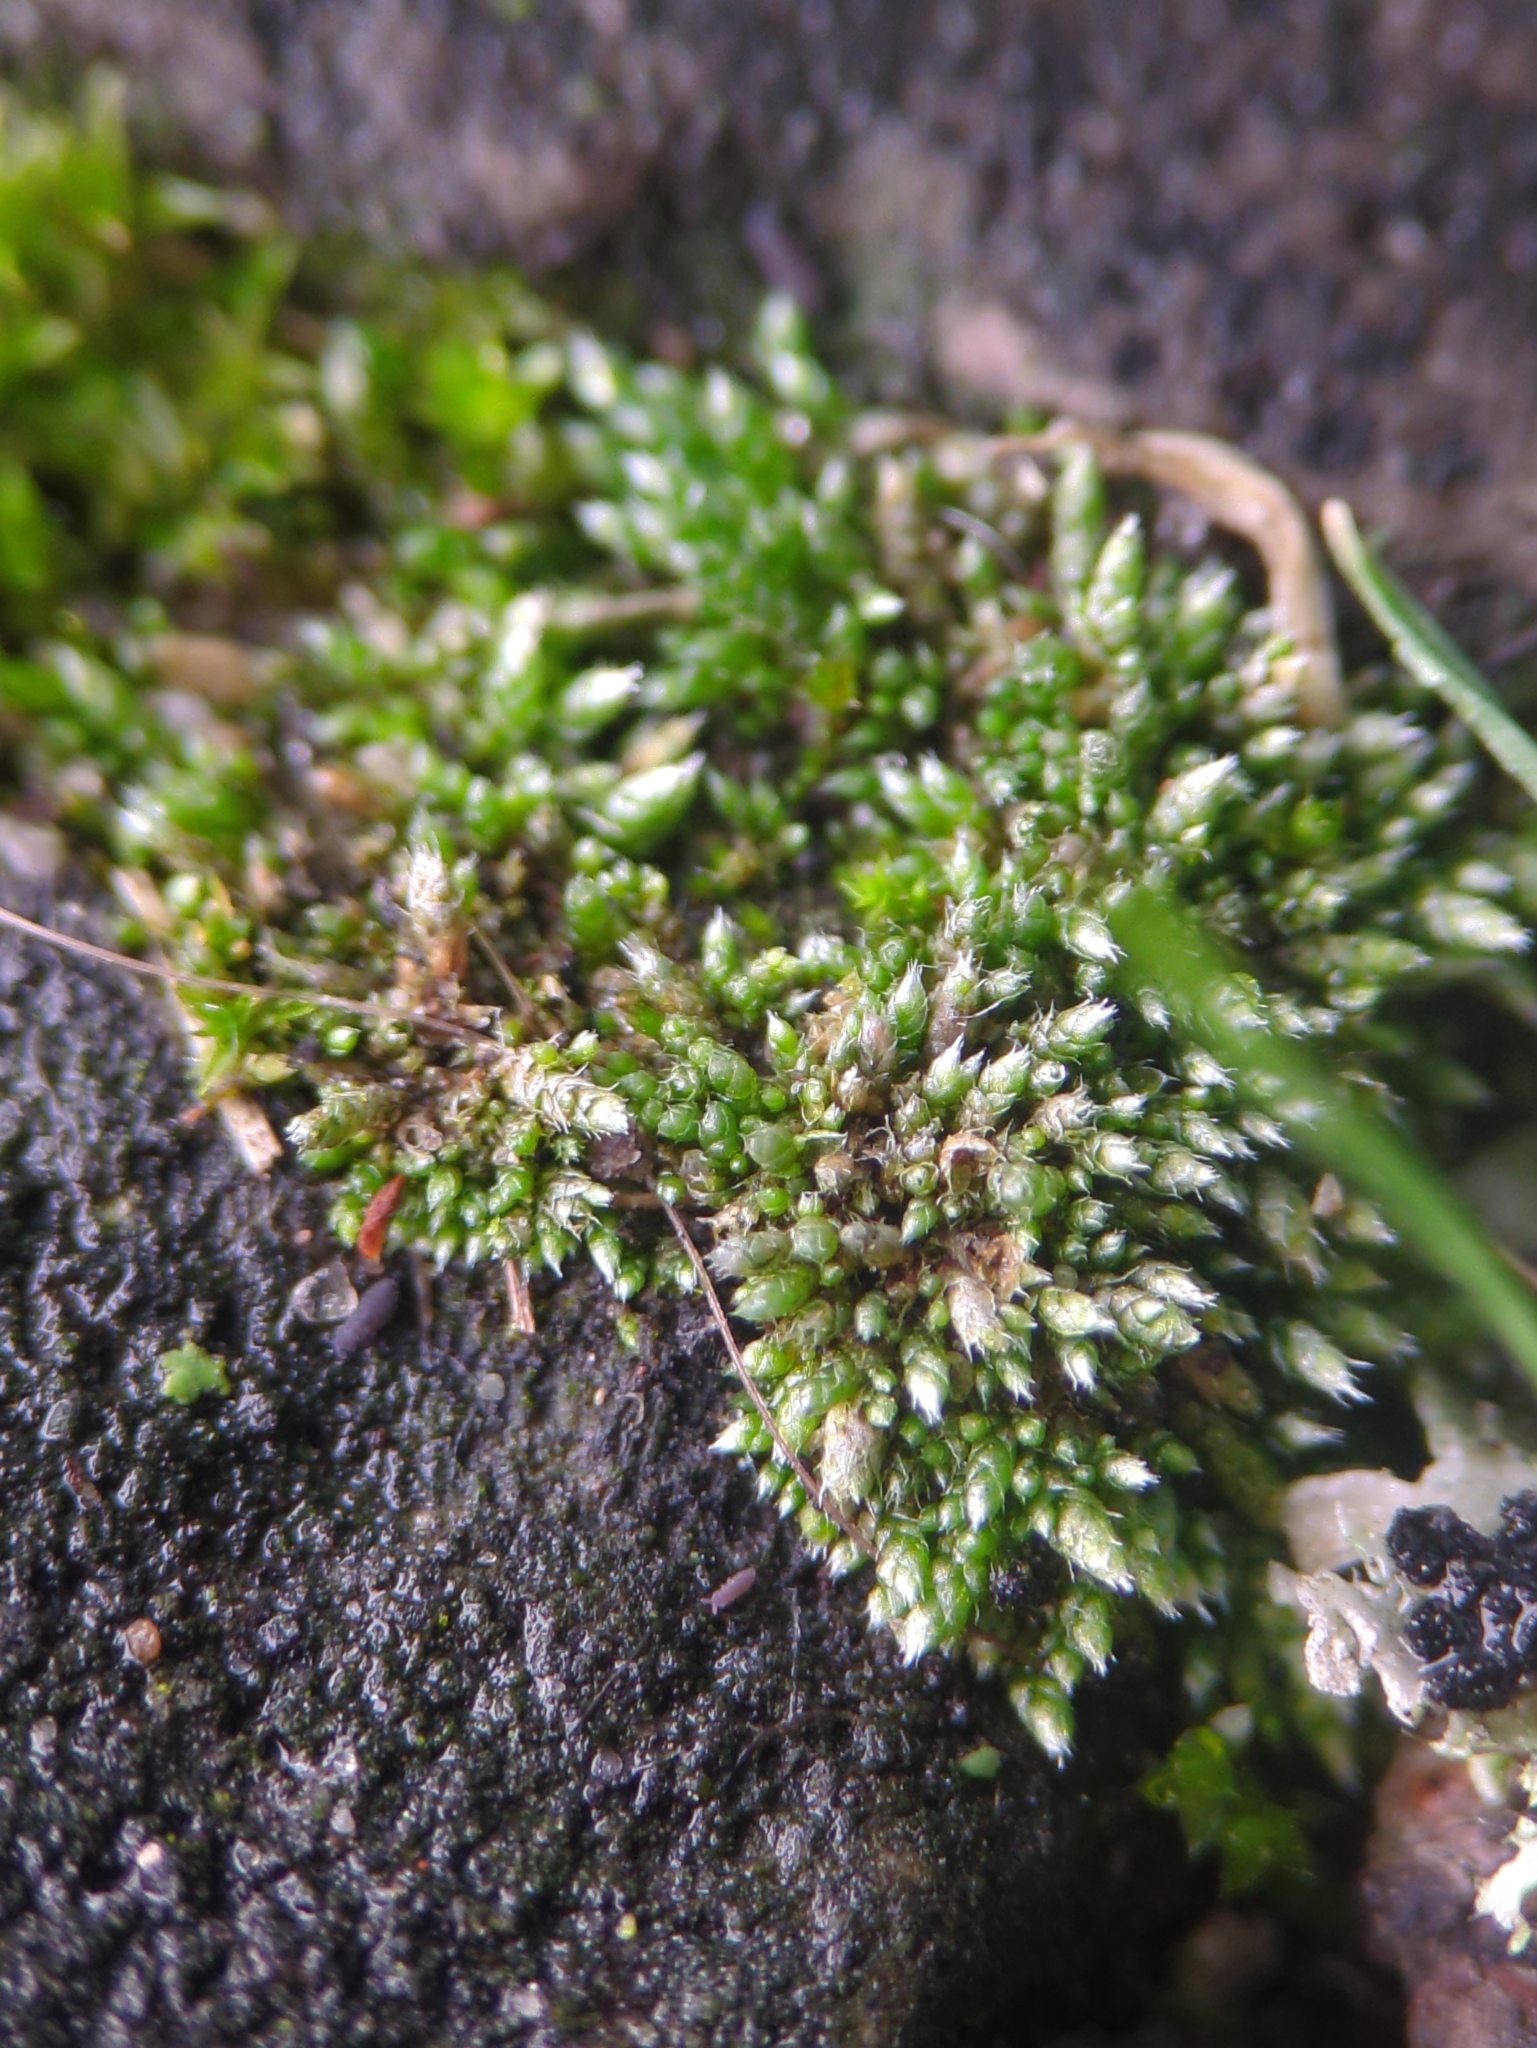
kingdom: Plantae
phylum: Bryophyta
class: Bryopsida
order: Bryales
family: Bryaceae
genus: Bryum
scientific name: Bryum argenteum
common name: Silver-moss
